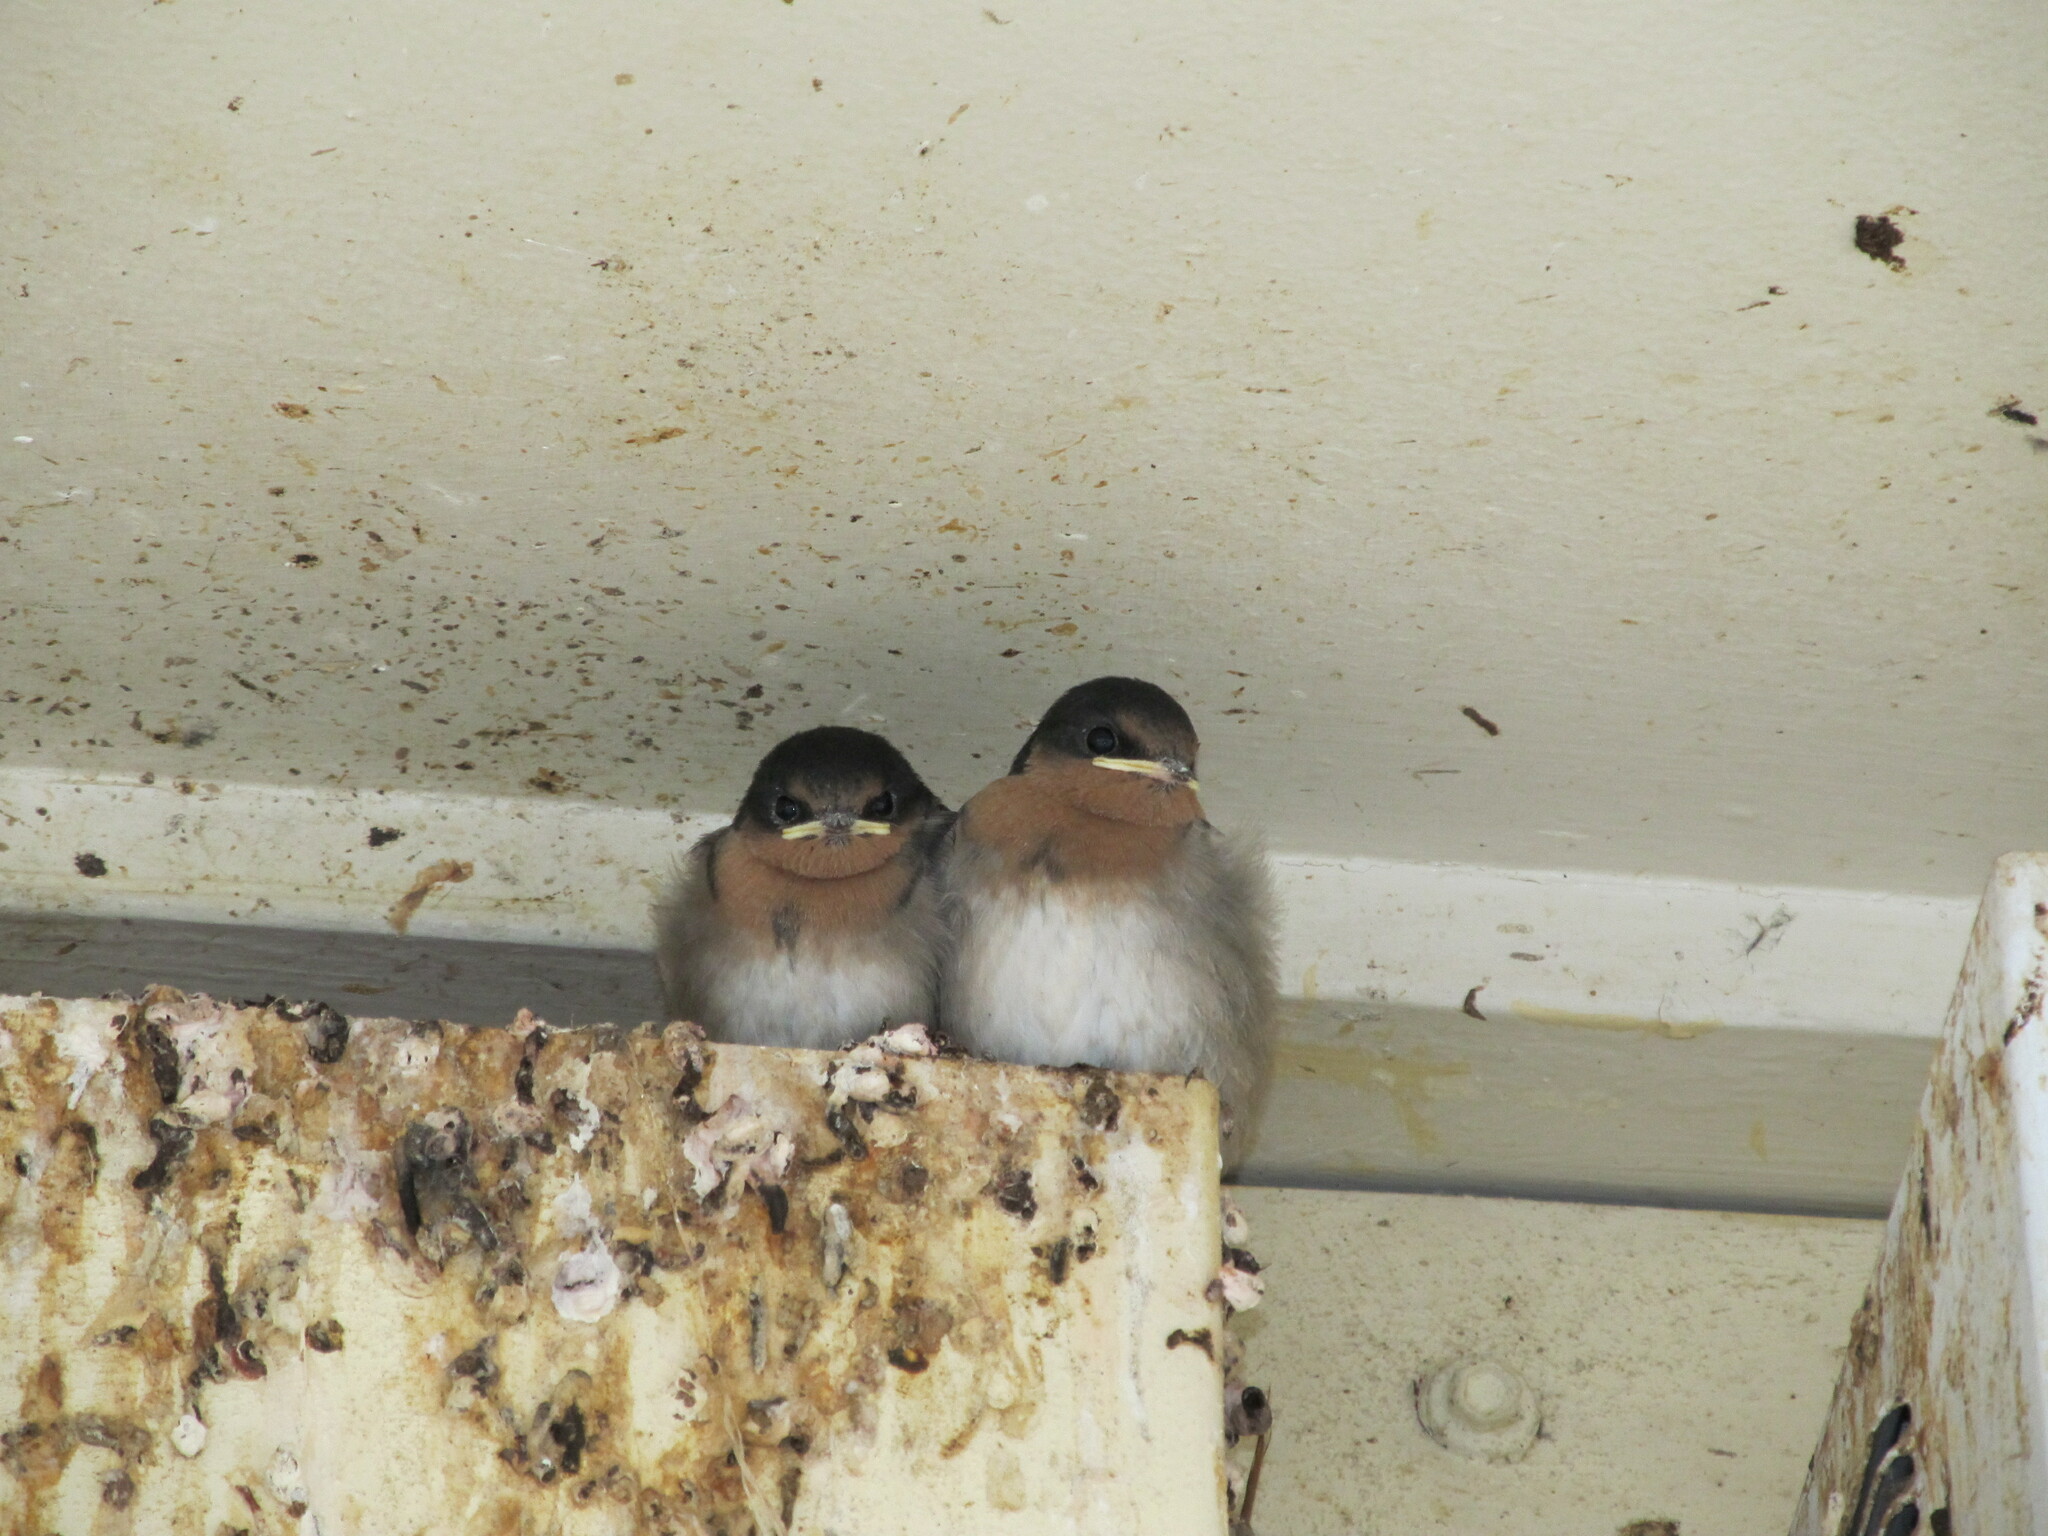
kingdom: Animalia
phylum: Chordata
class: Aves
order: Passeriformes
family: Hirundinidae
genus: Hirundo
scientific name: Hirundo neoxena
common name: Welcome swallow
